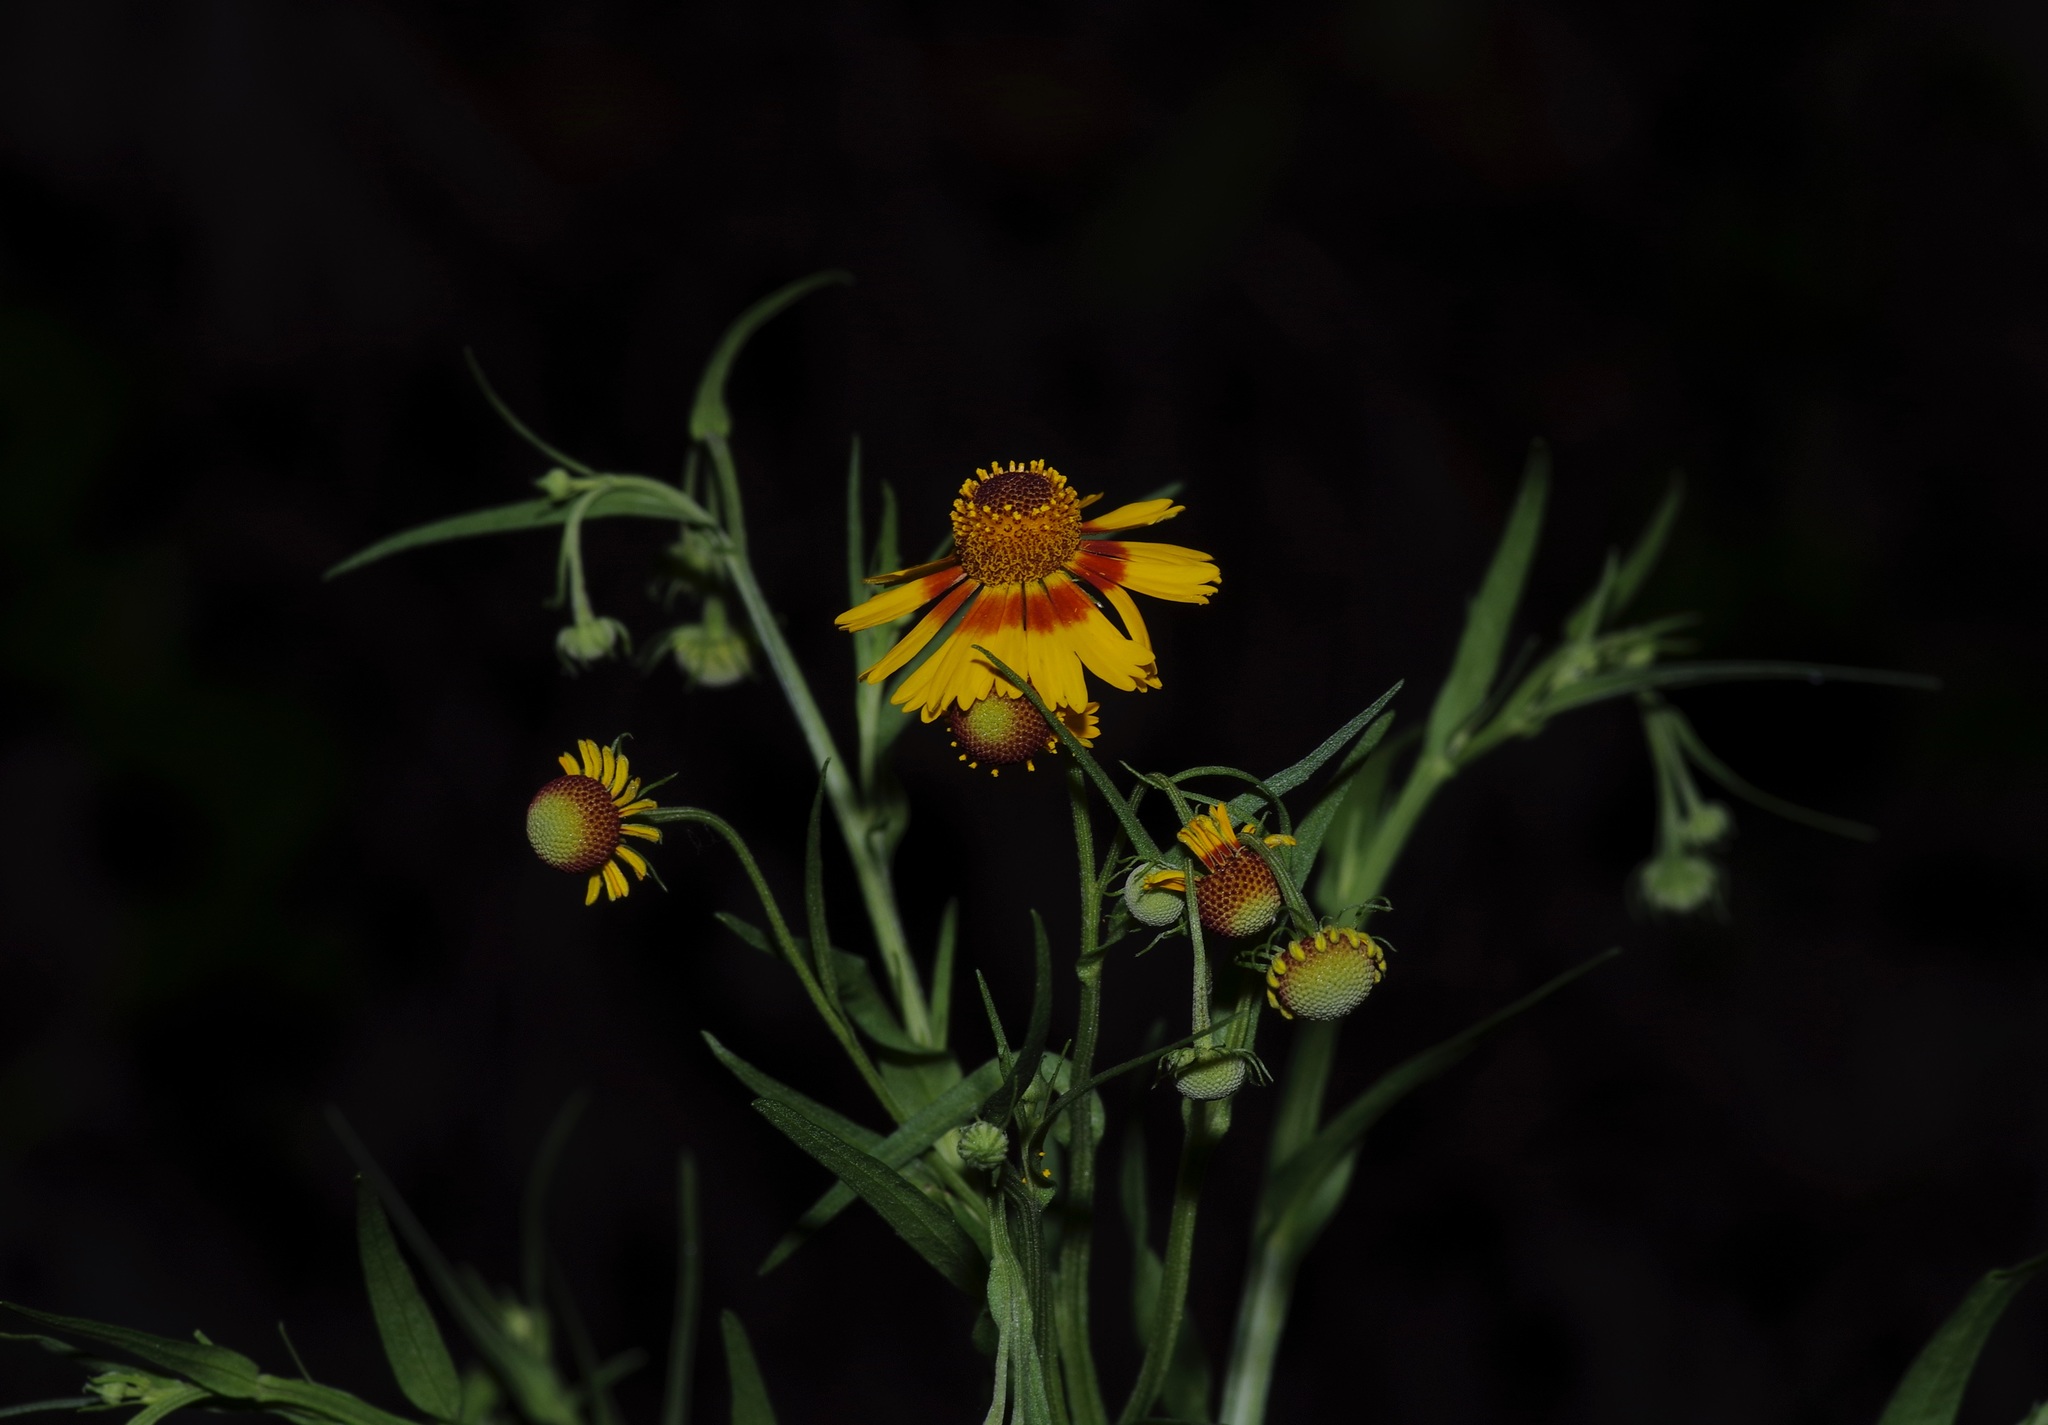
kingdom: Plantae
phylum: Tracheophyta
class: Magnoliopsida
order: Asterales
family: Asteraceae
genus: Helenium
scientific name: Helenium elegans
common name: Pretty sneezeweed
